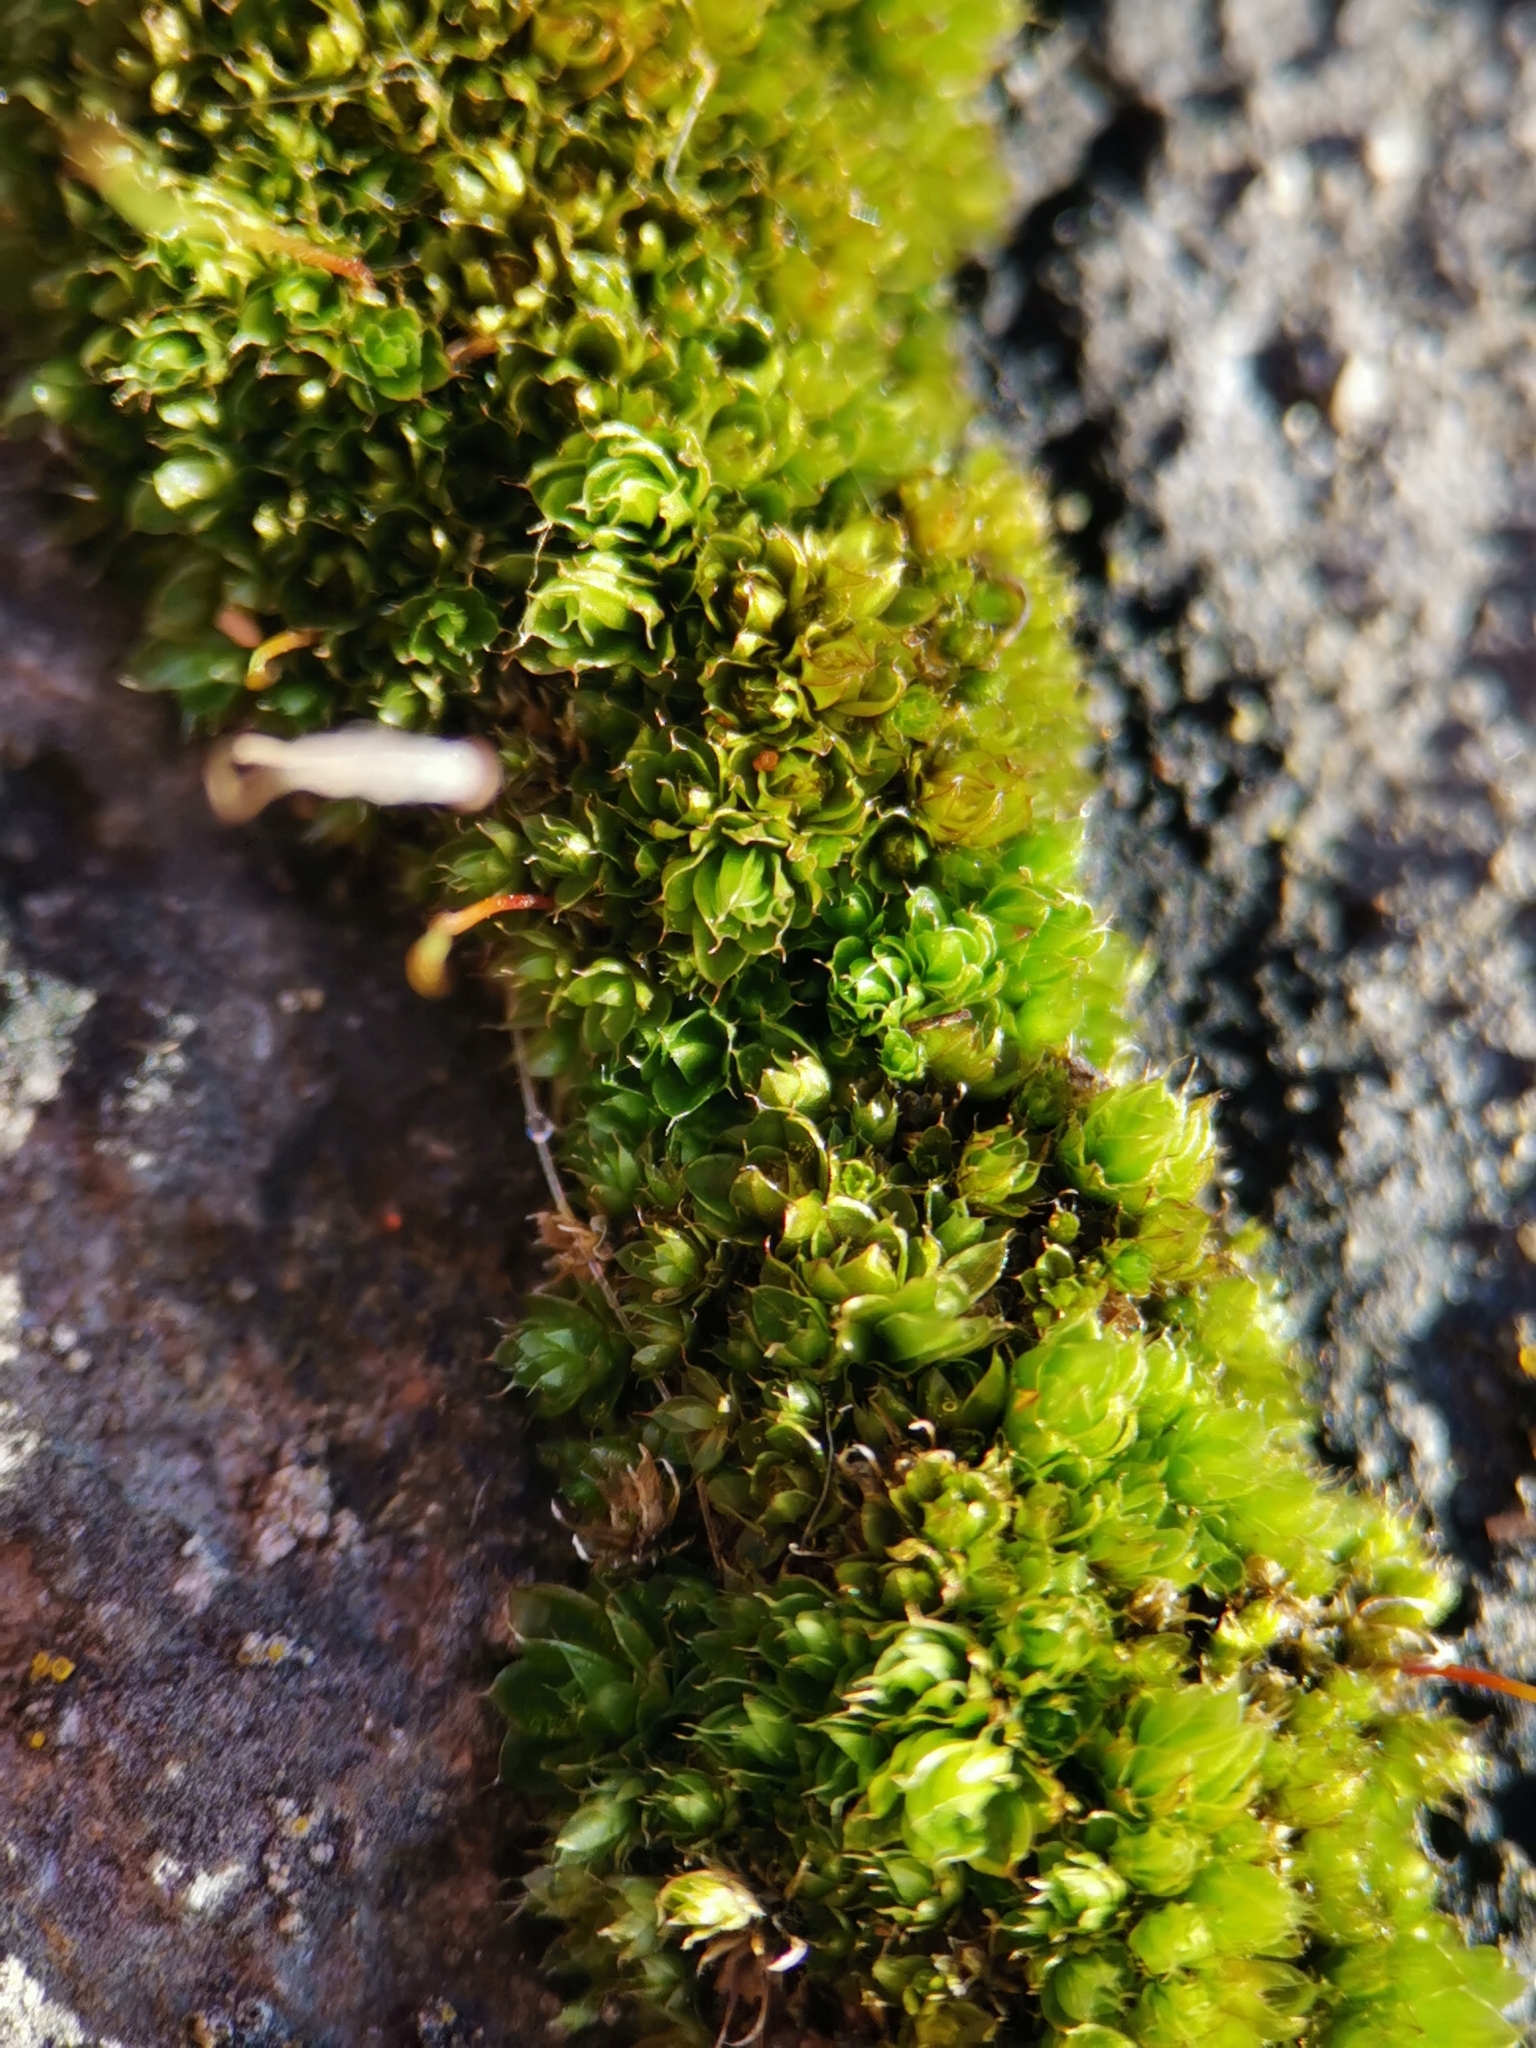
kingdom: Plantae
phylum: Bryophyta
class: Bryopsida
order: Bryales
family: Bryaceae
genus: Rosulabryum
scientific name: Rosulabryum capillare
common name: Capillary thread-moss
